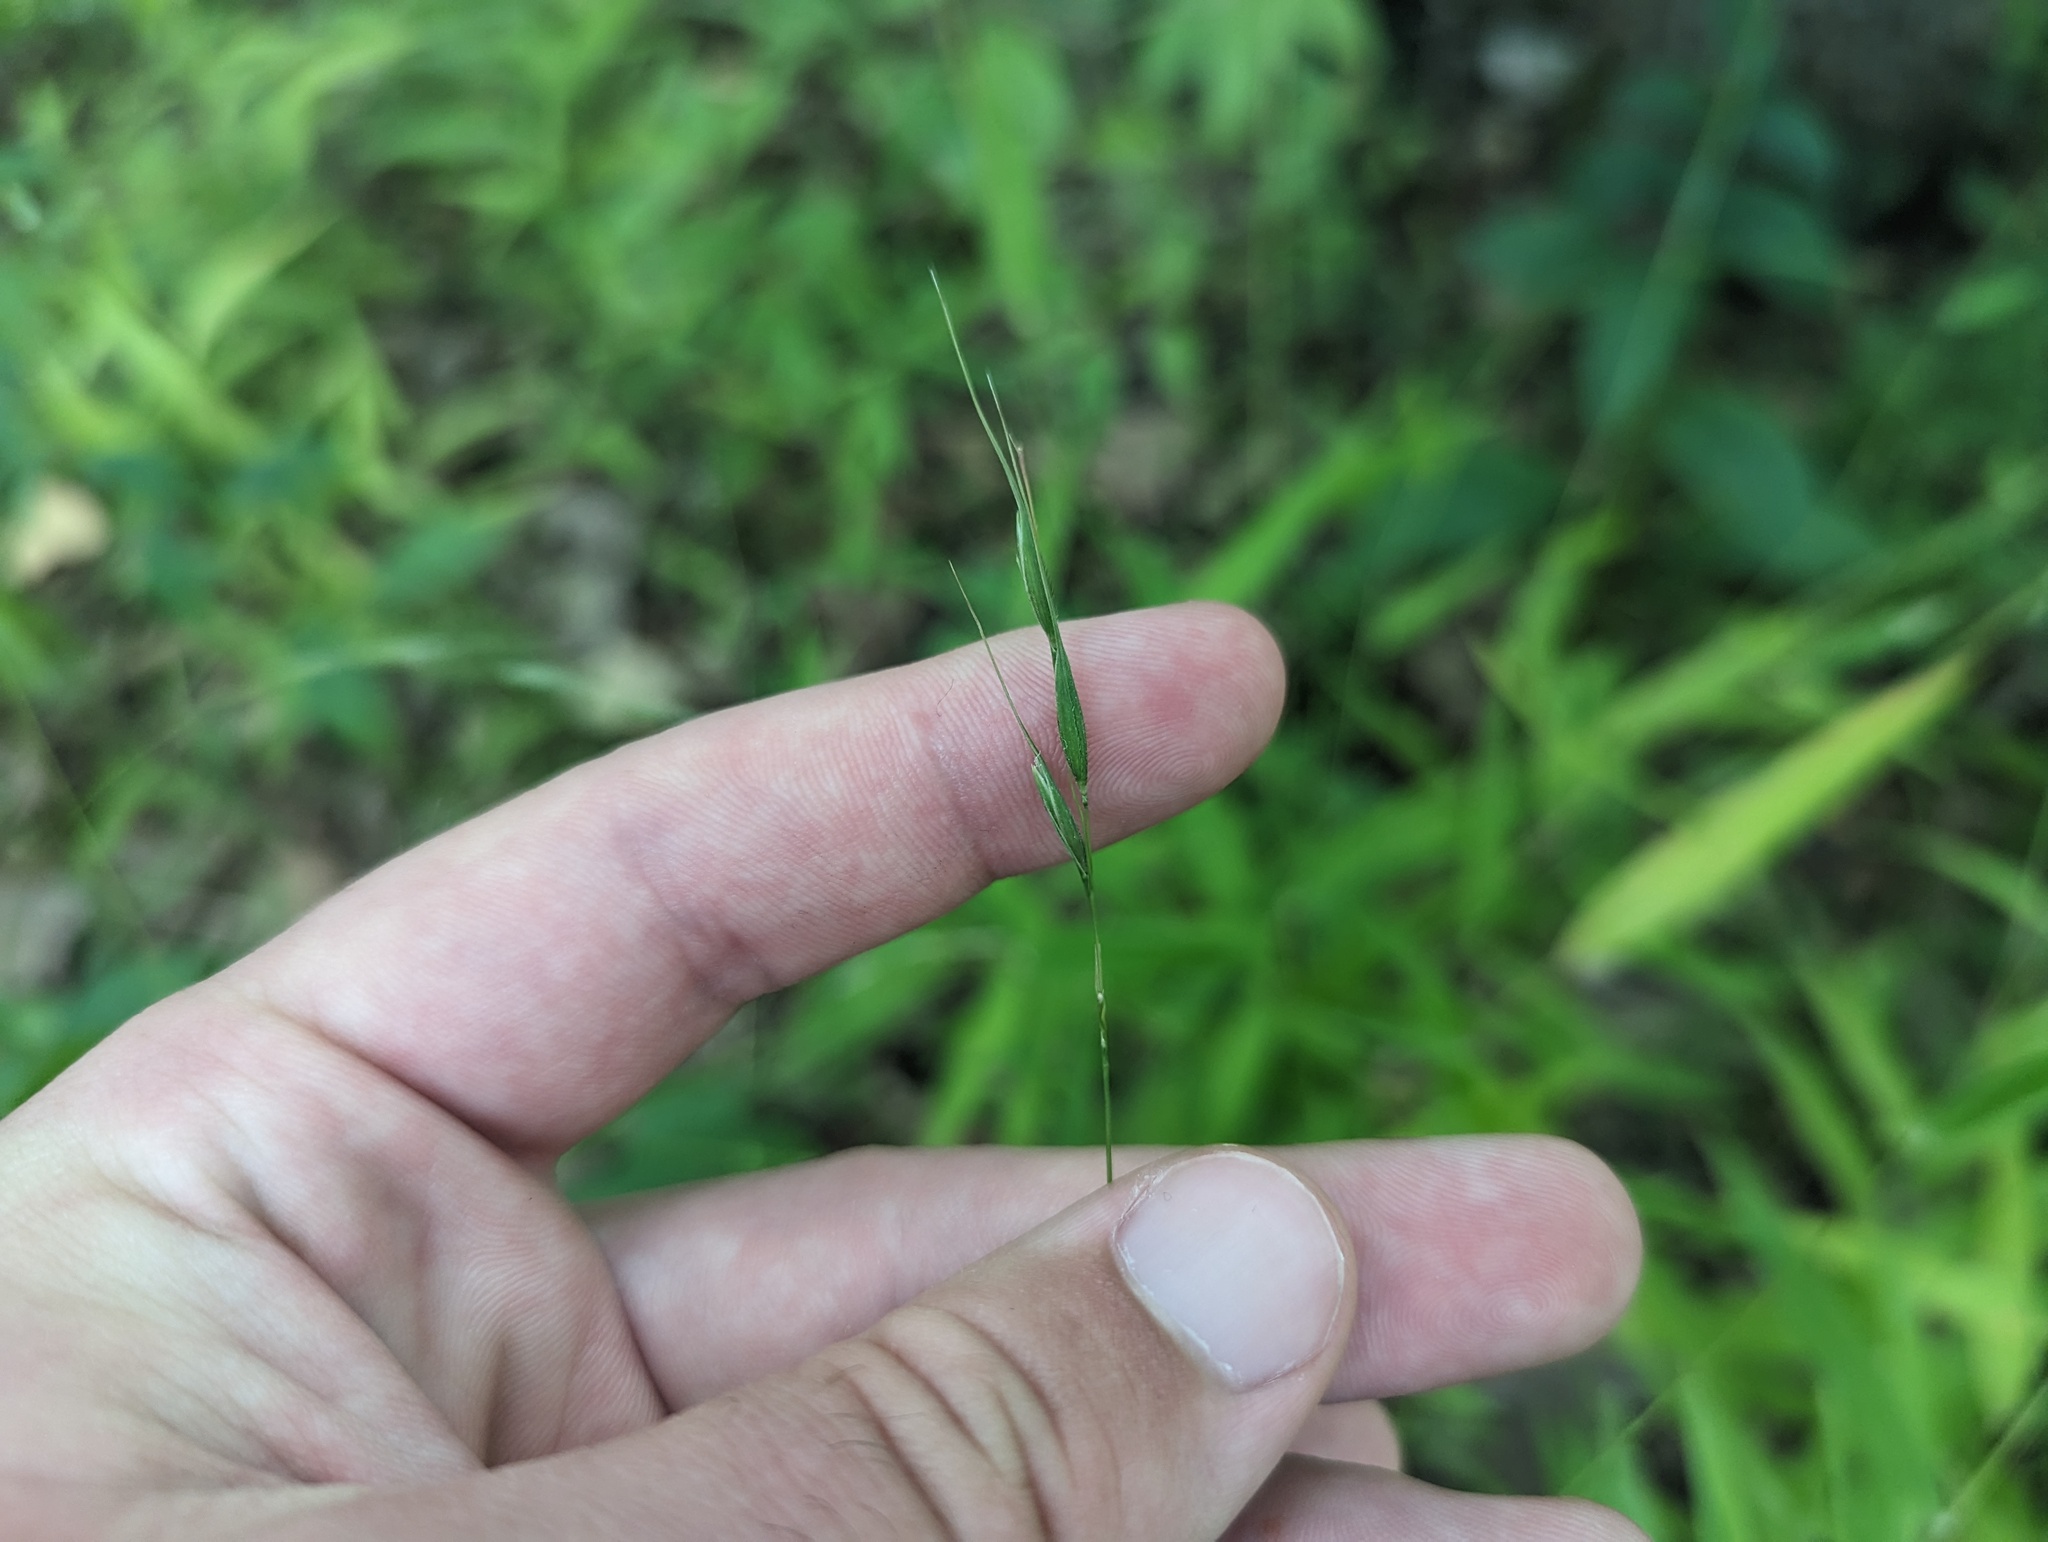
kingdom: Plantae
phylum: Tracheophyta
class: Liliopsida
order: Poales
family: Poaceae
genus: Brachyelytrum
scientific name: Brachyelytrum erectum
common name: Bearded shorthusk
